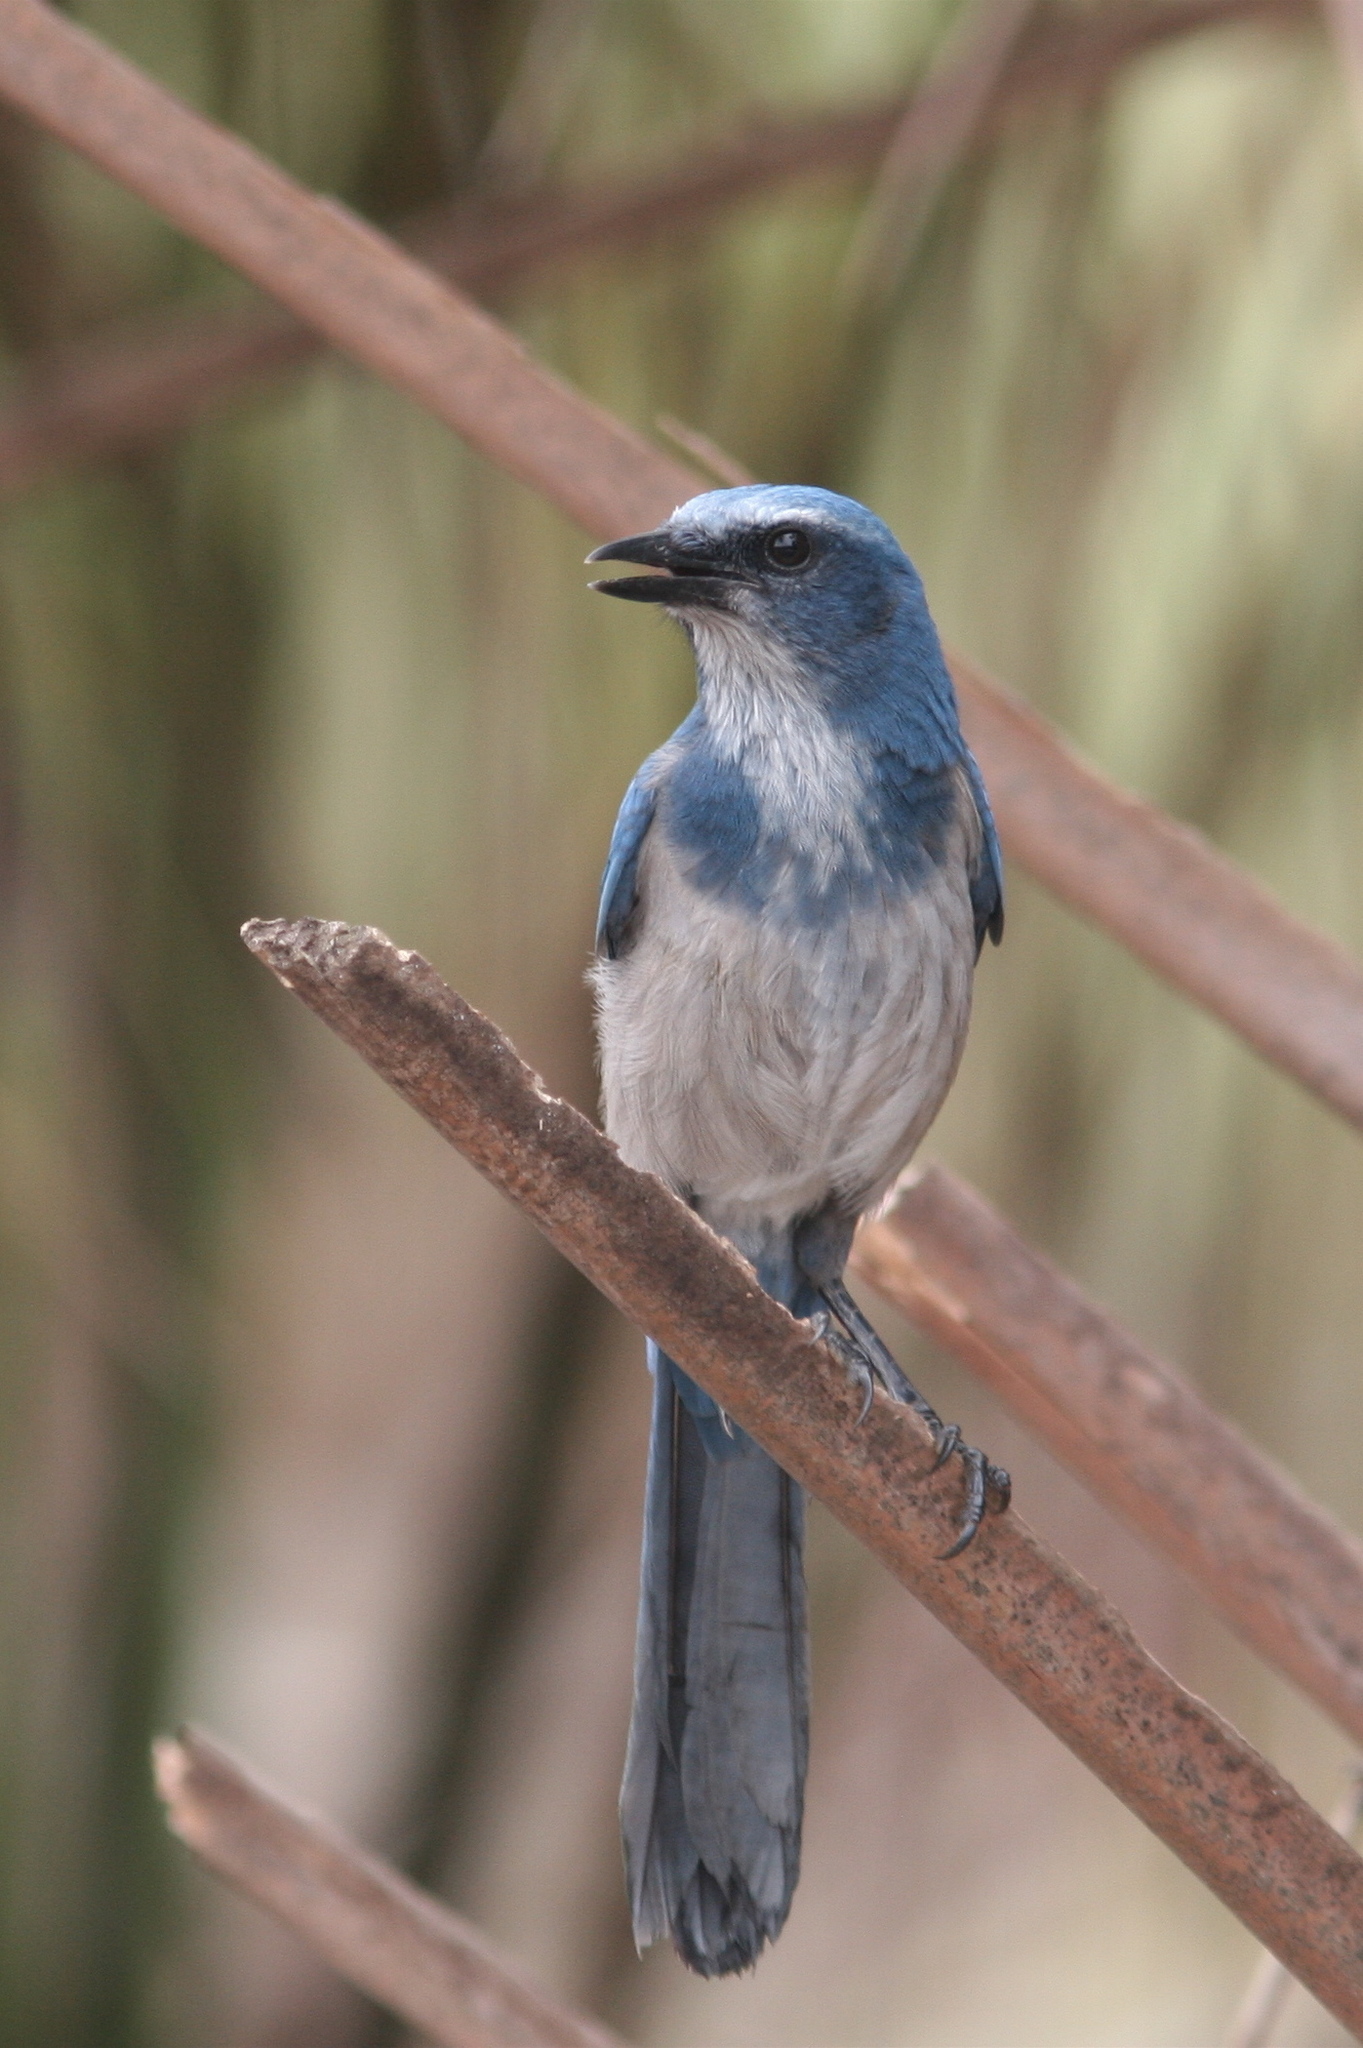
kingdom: Animalia
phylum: Chordata
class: Aves
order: Passeriformes
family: Corvidae
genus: Aphelocoma
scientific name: Aphelocoma coerulescens
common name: Florida scrub jay
